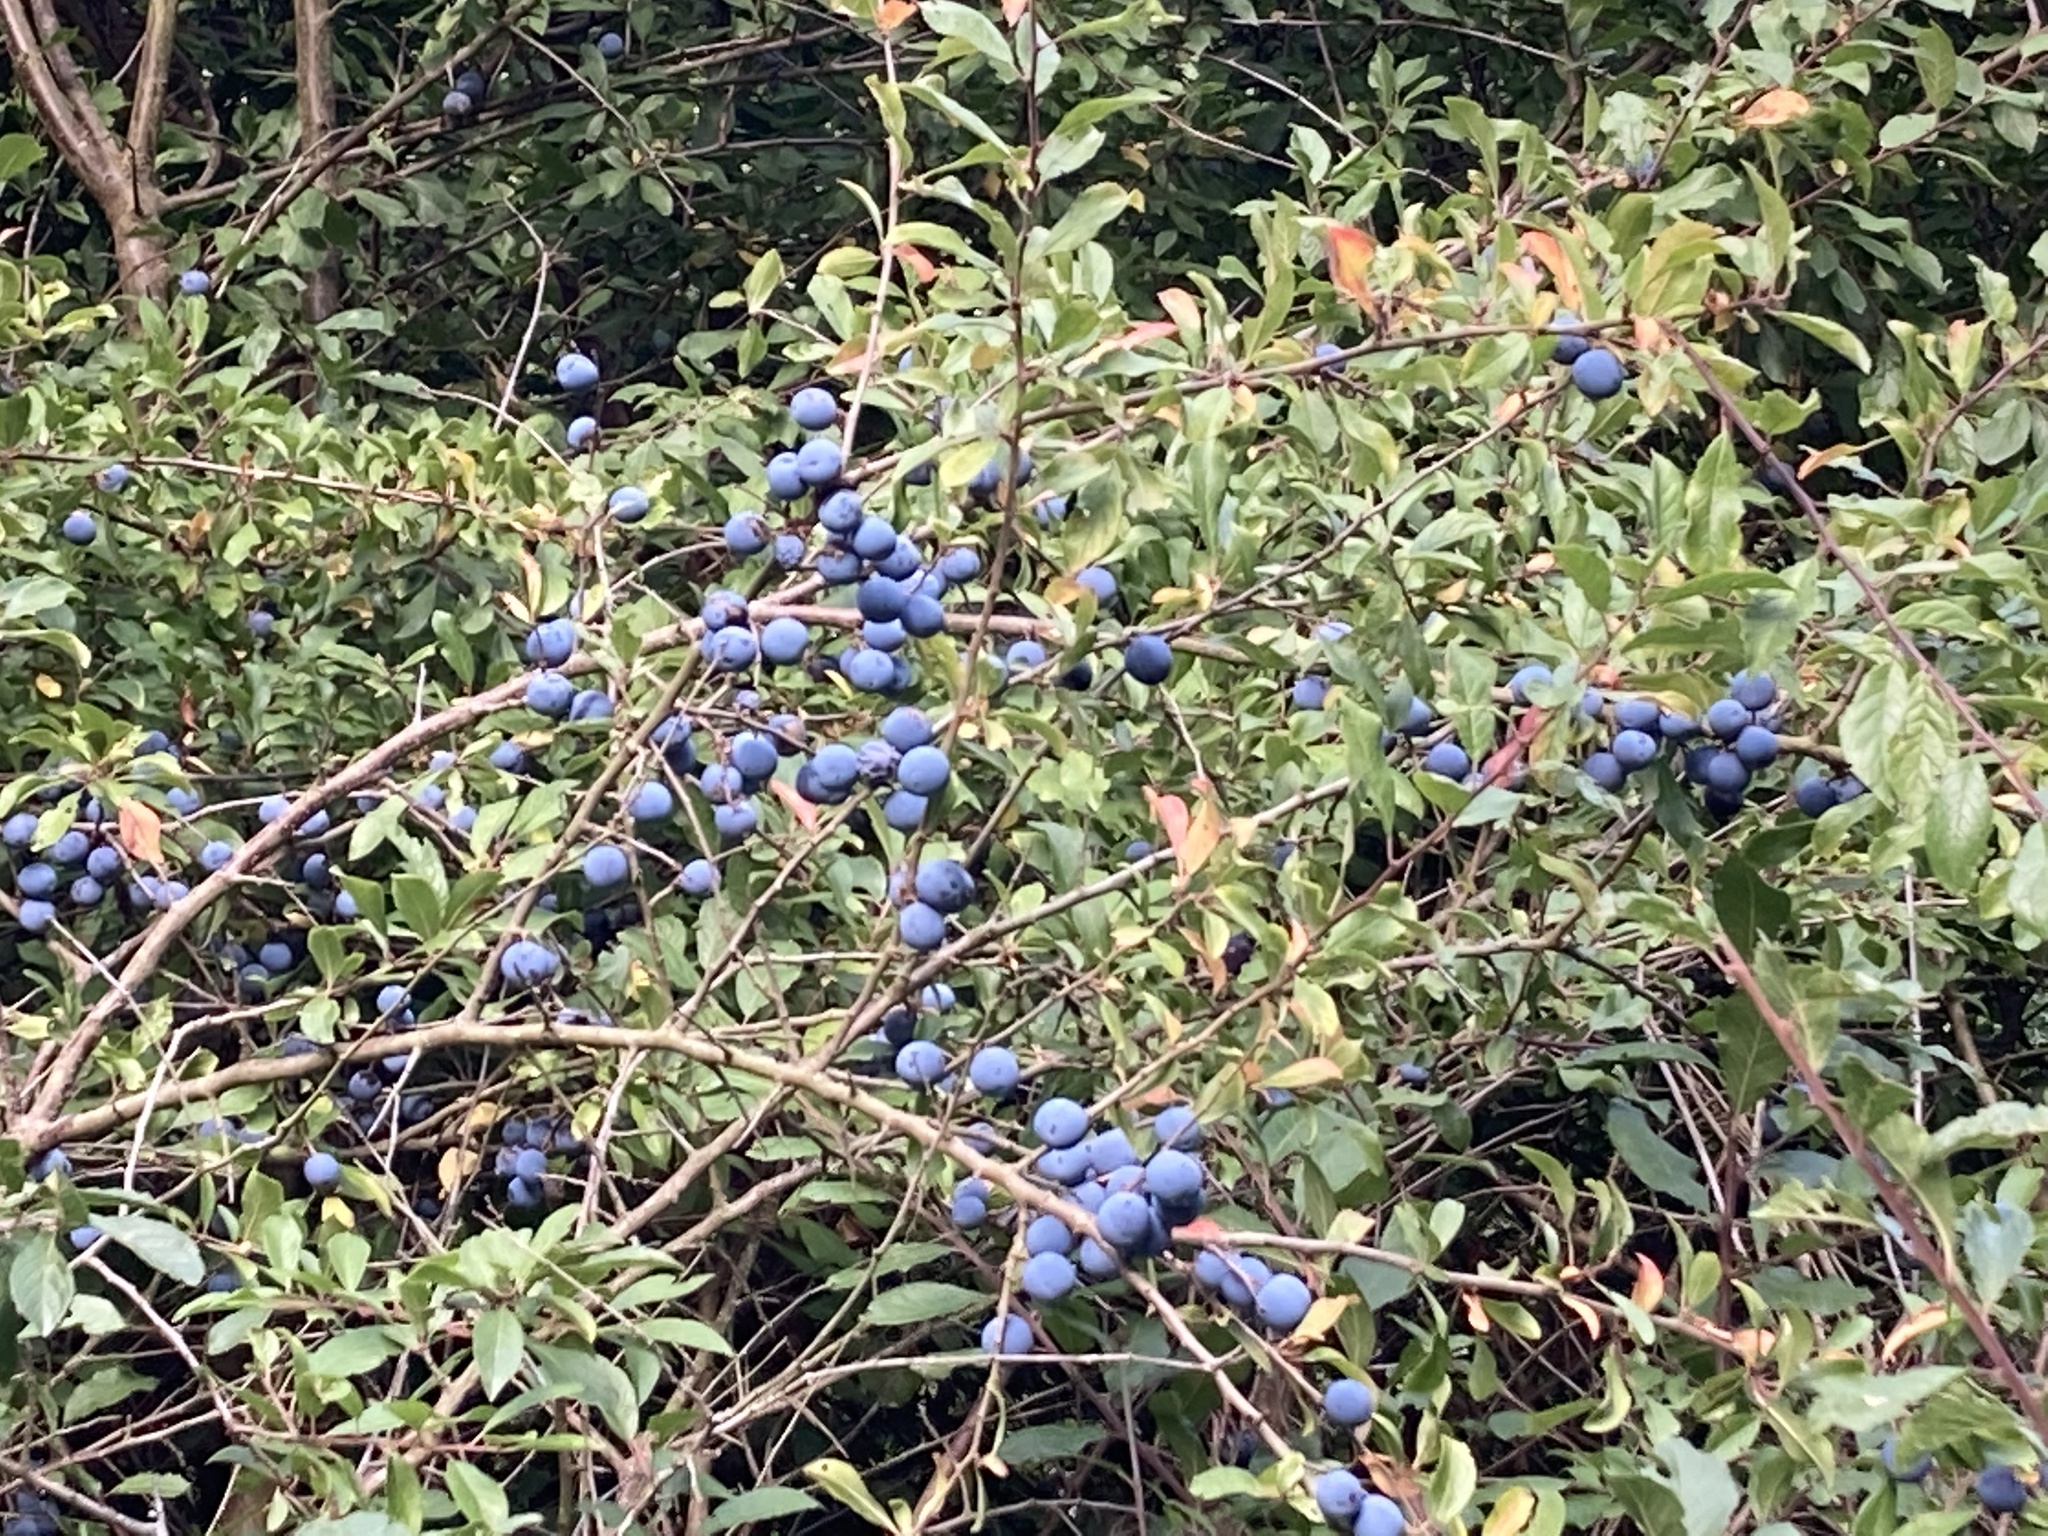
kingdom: Plantae
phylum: Tracheophyta
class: Magnoliopsida
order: Rosales
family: Rosaceae
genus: Prunus
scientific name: Prunus spinosa
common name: Blackthorn
